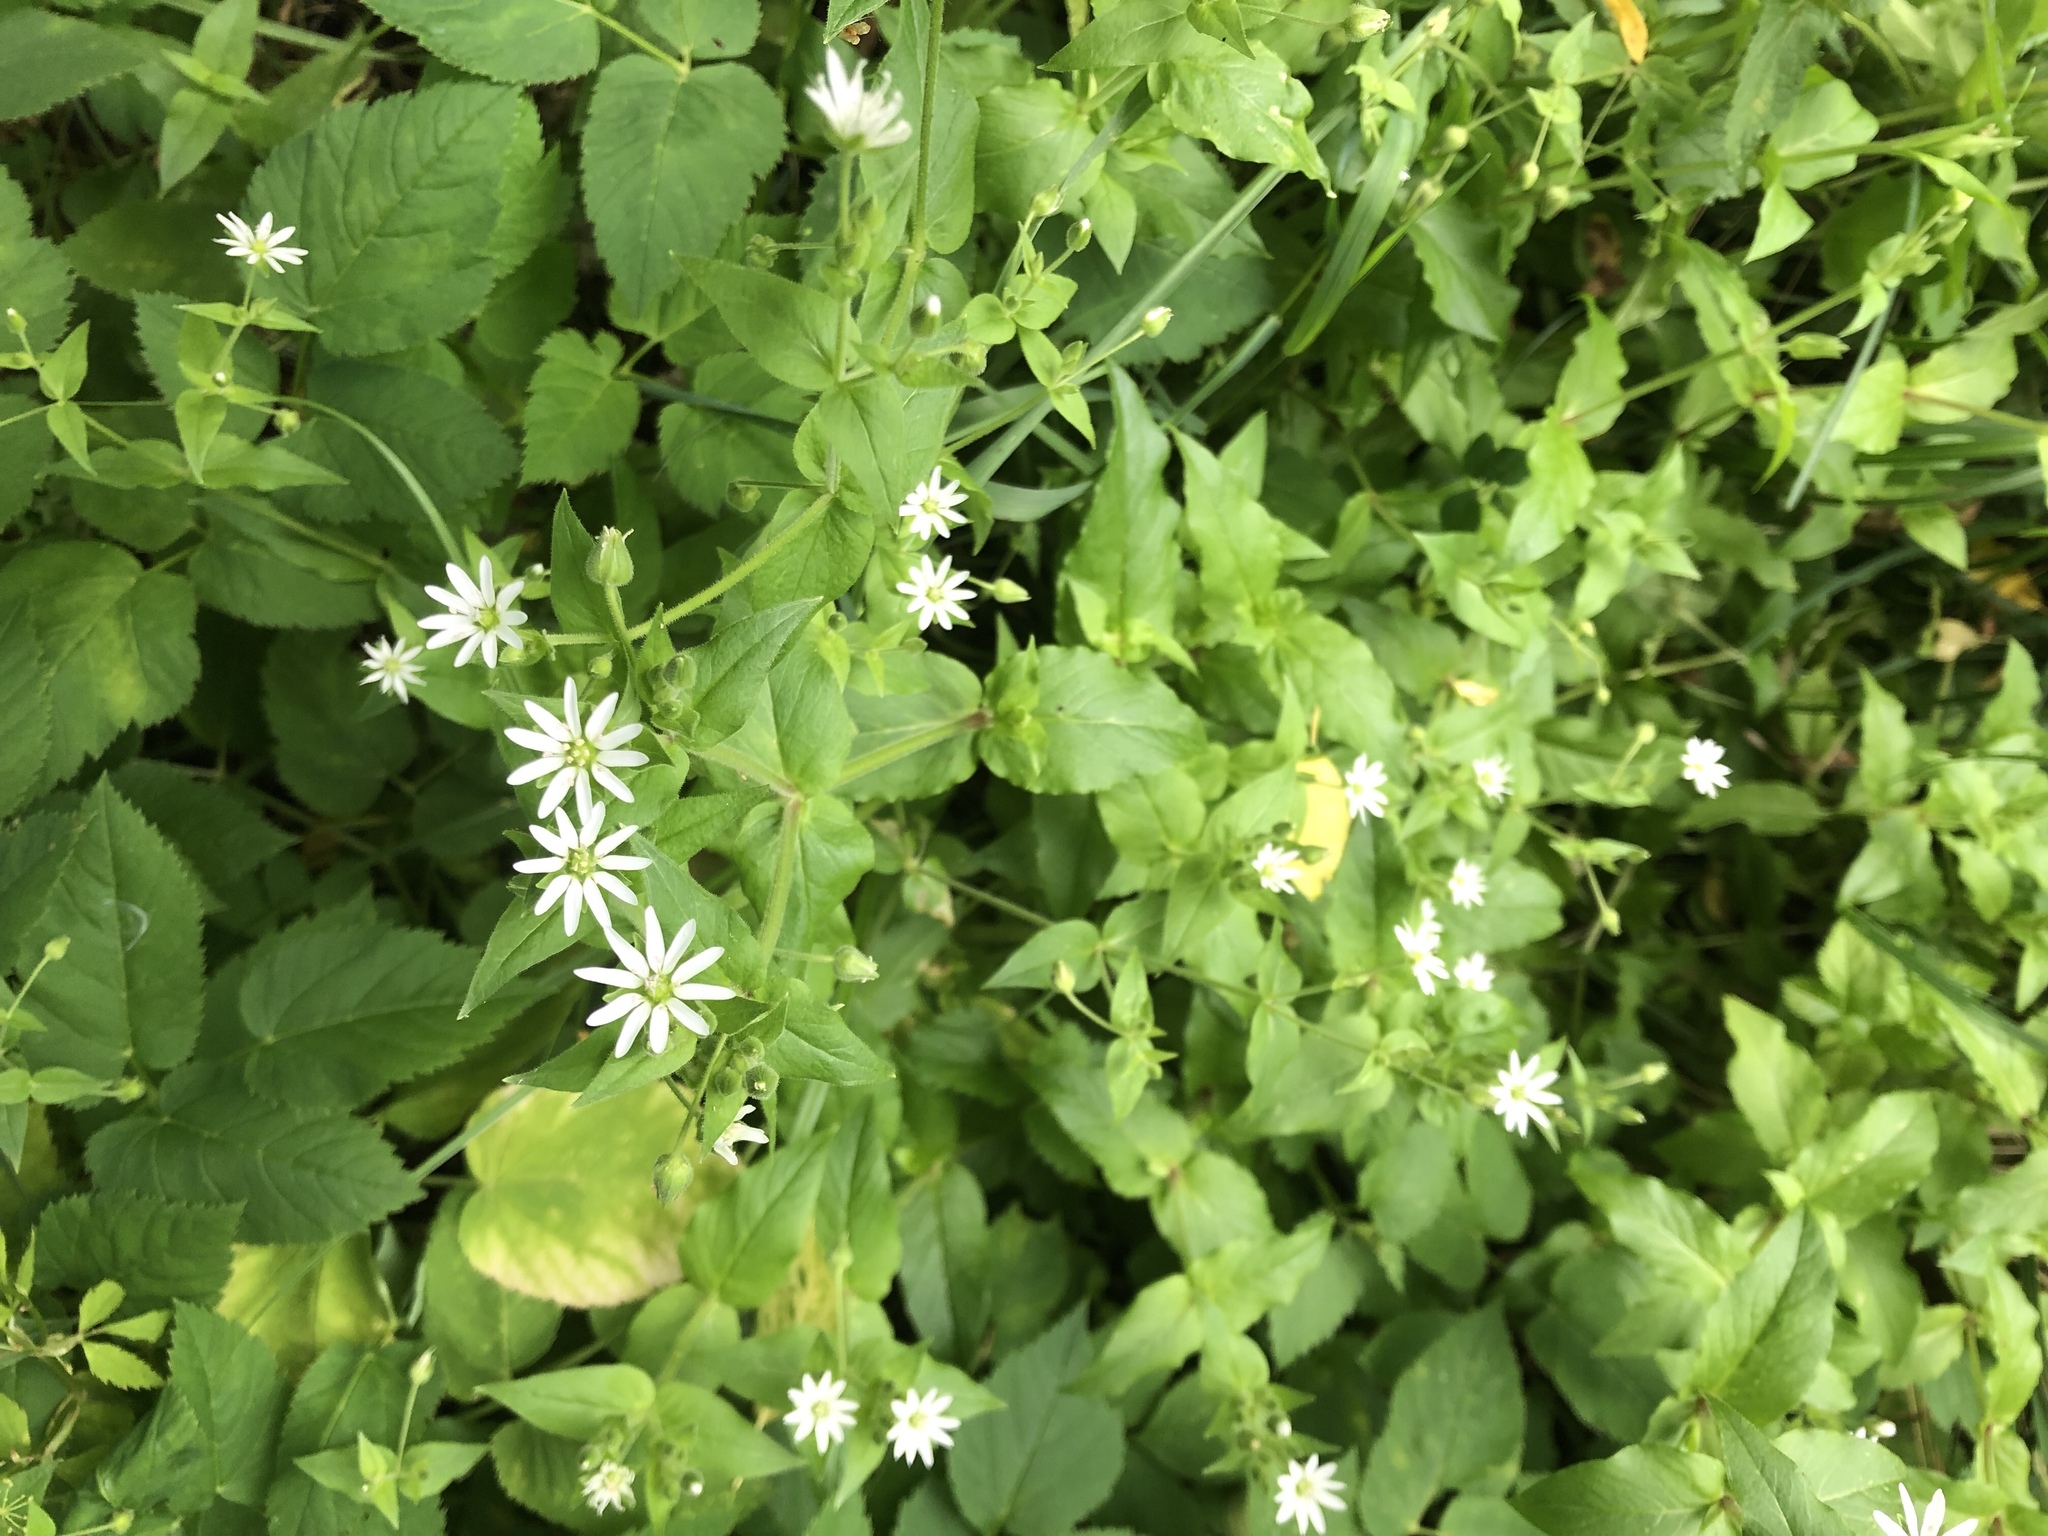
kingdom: Plantae
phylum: Tracheophyta
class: Magnoliopsida
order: Caryophyllales
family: Caryophyllaceae
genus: Stellaria
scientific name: Stellaria aquatica
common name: Water chickweed
